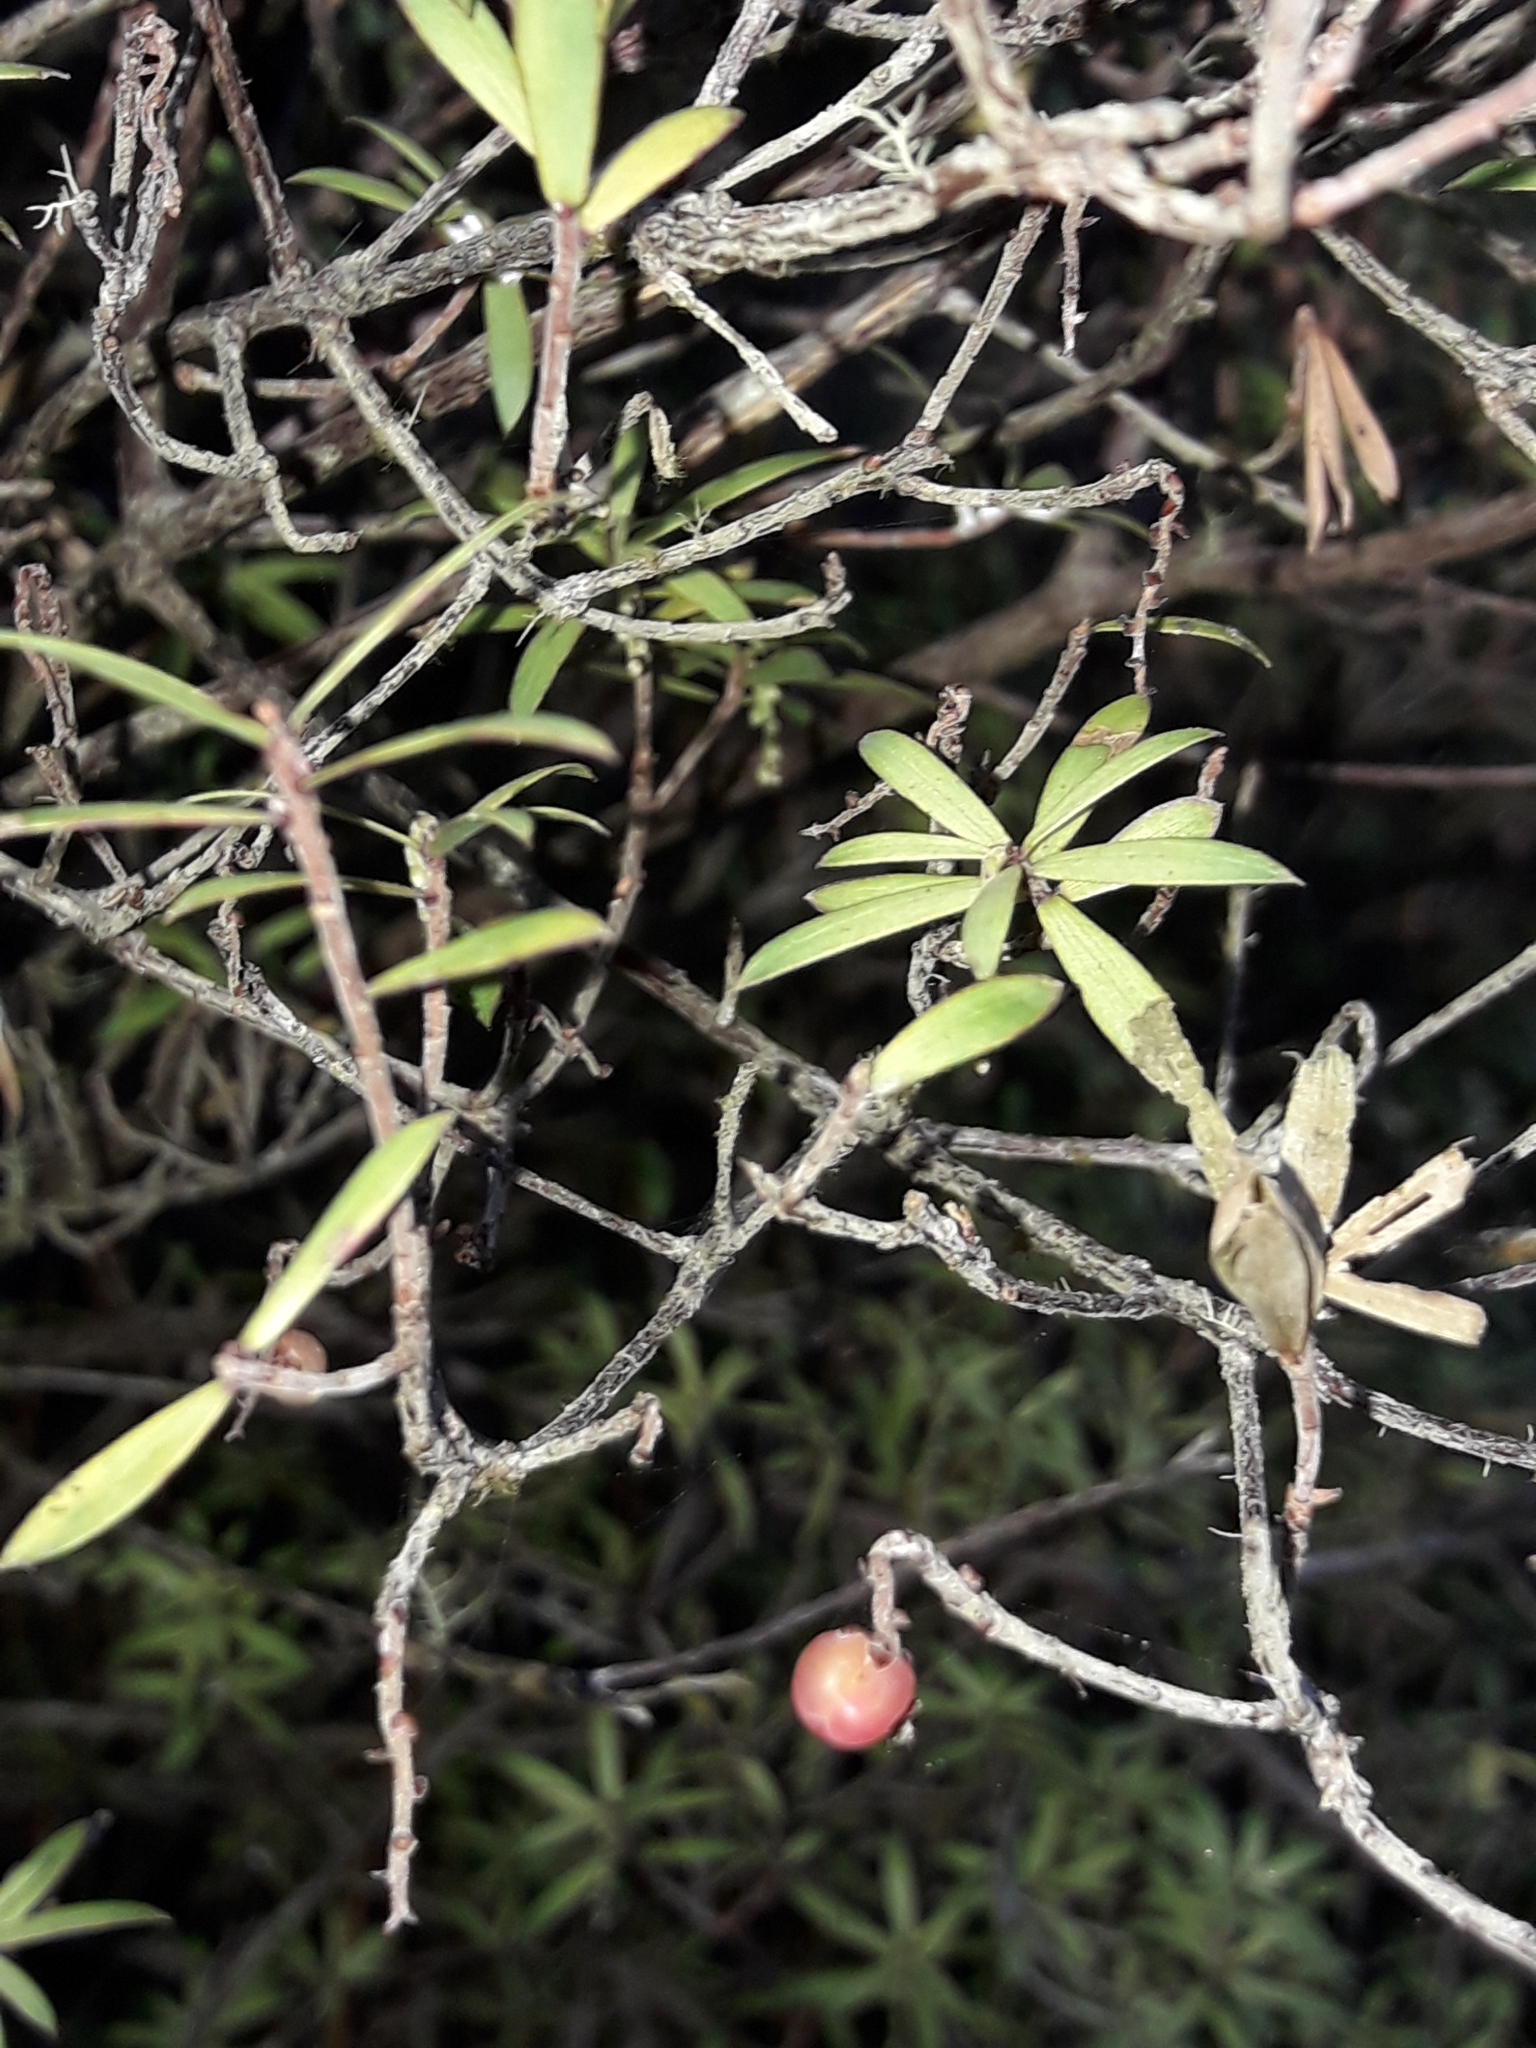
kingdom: Plantae
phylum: Tracheophyta
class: Magnoliopsida
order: Ericales
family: Ericaceae
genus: Leucopogon
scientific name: Leucopogon fasciculatus
